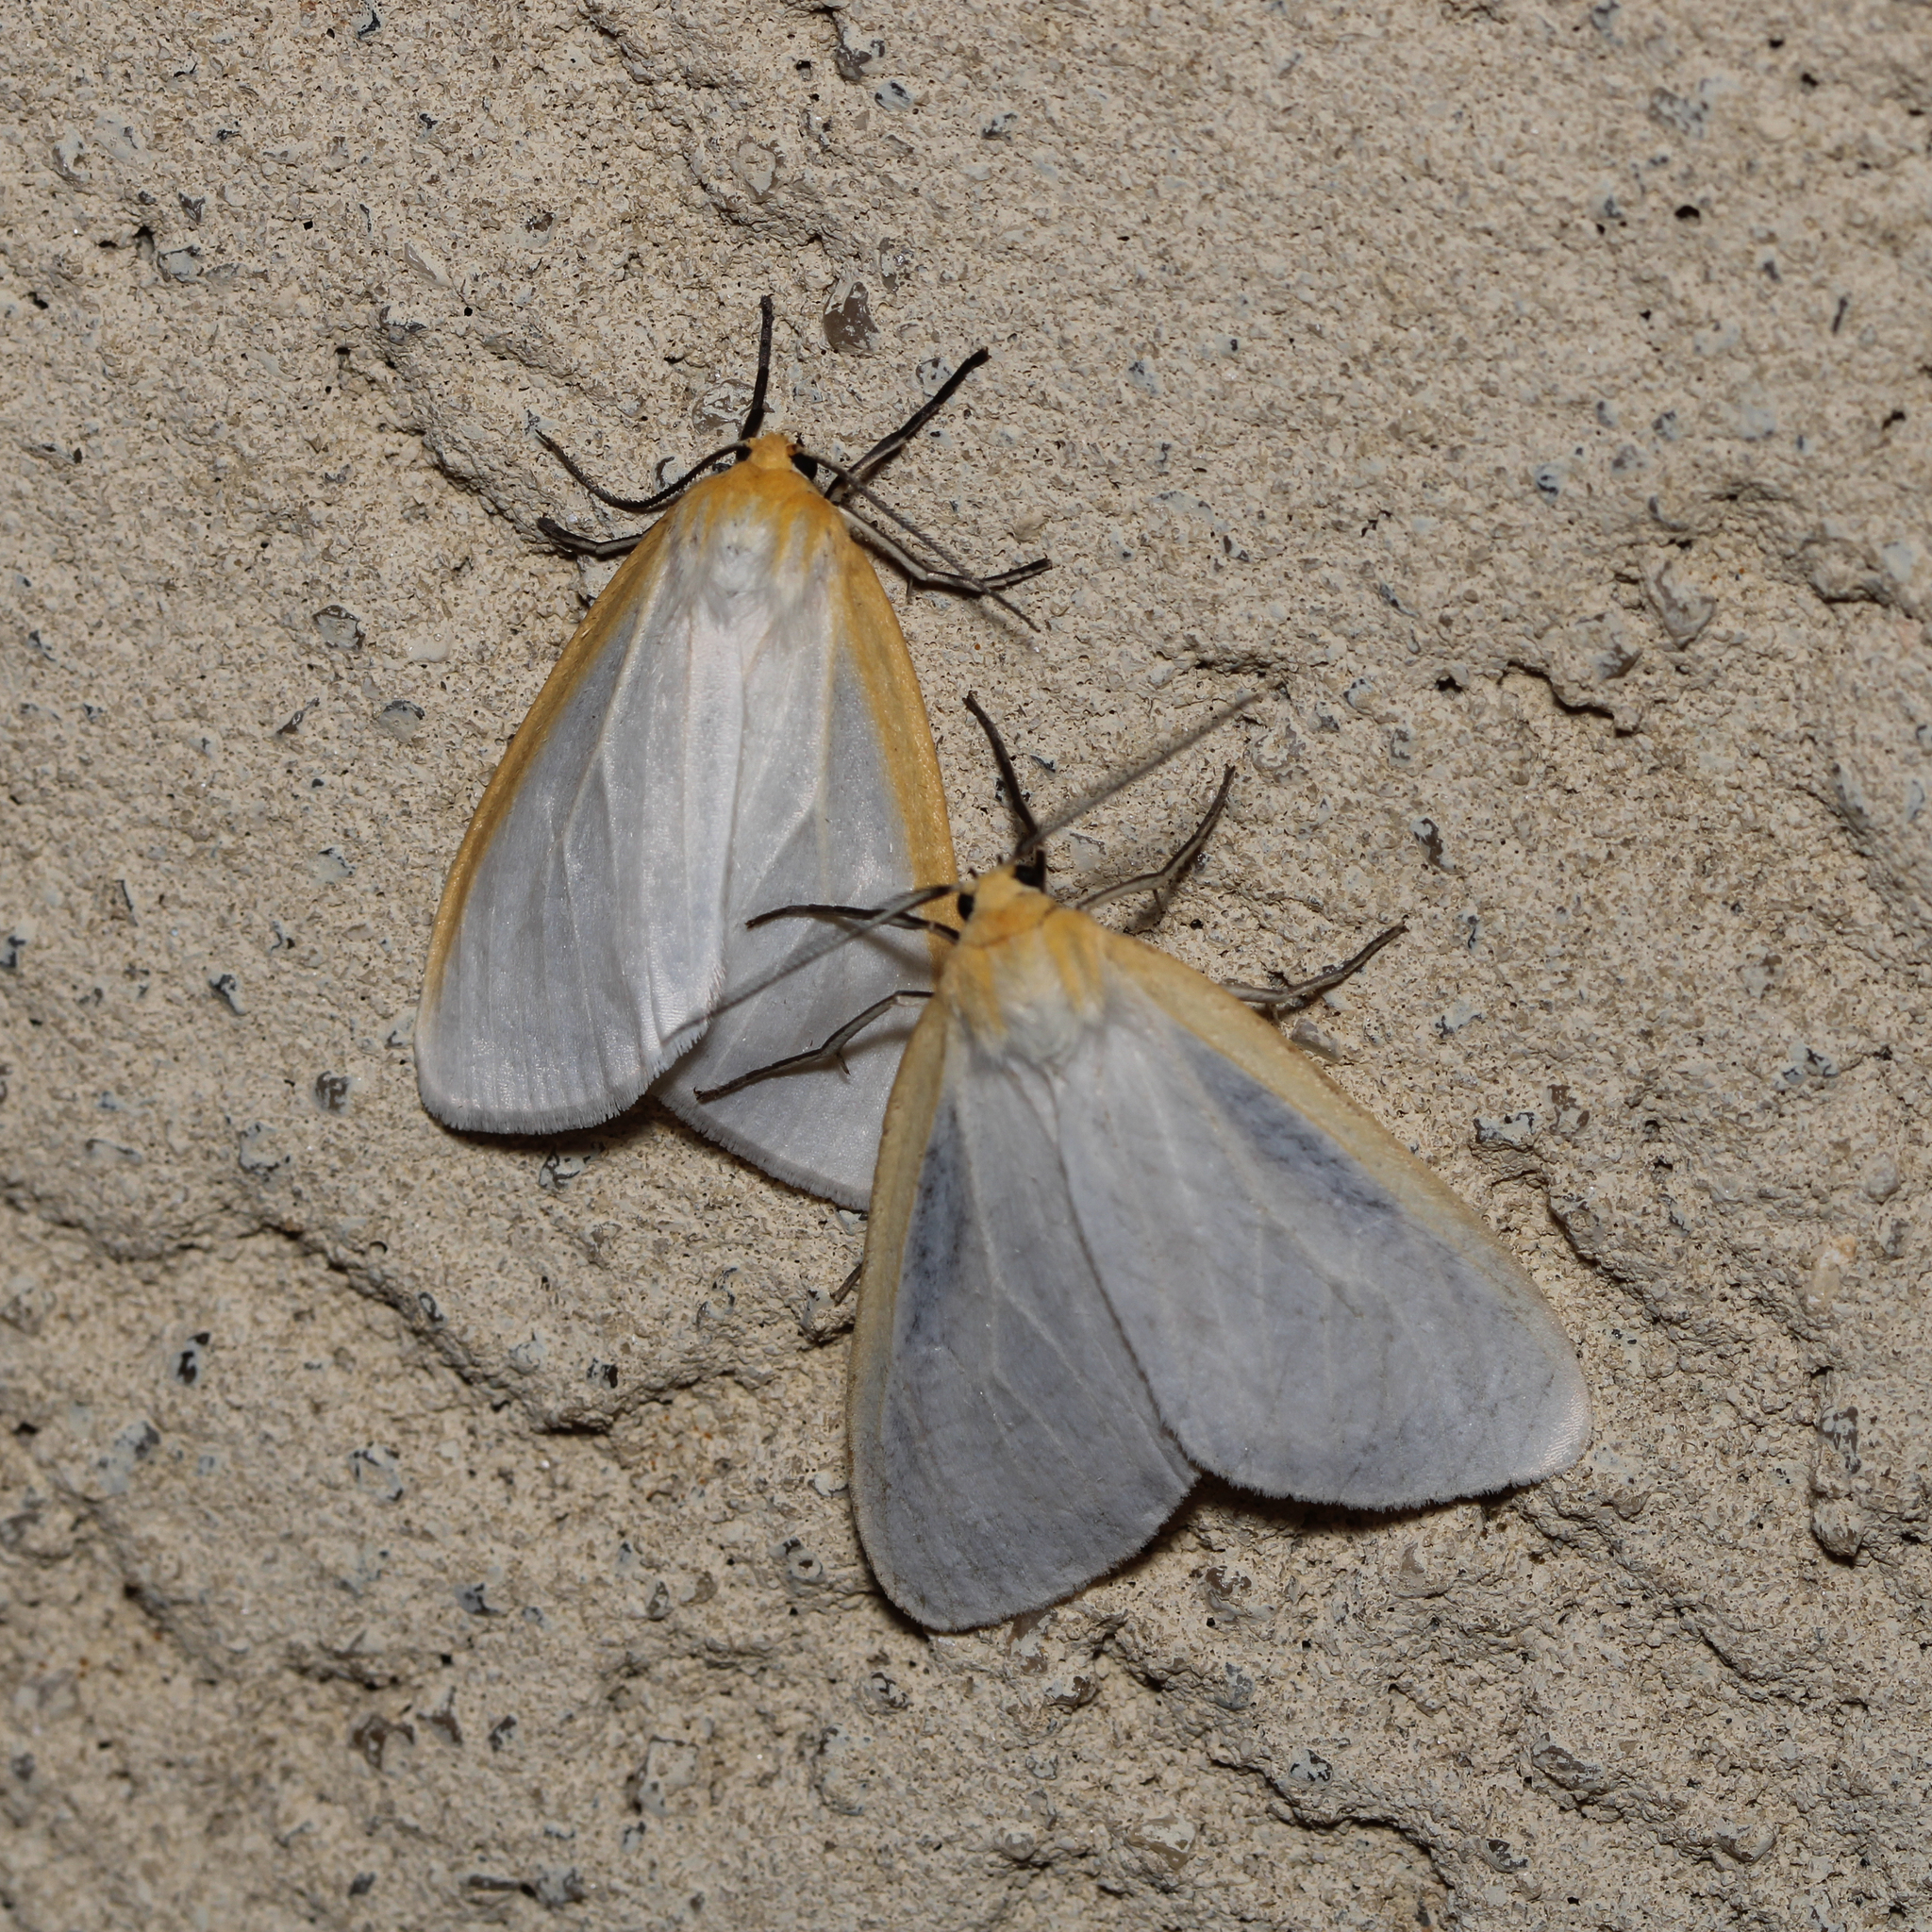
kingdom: Animalia
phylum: Arthropoda
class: Insecta
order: Lepidoptera
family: Erebidae
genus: Cycnia
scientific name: Cycnia tenera
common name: Delicate cycnia moth
